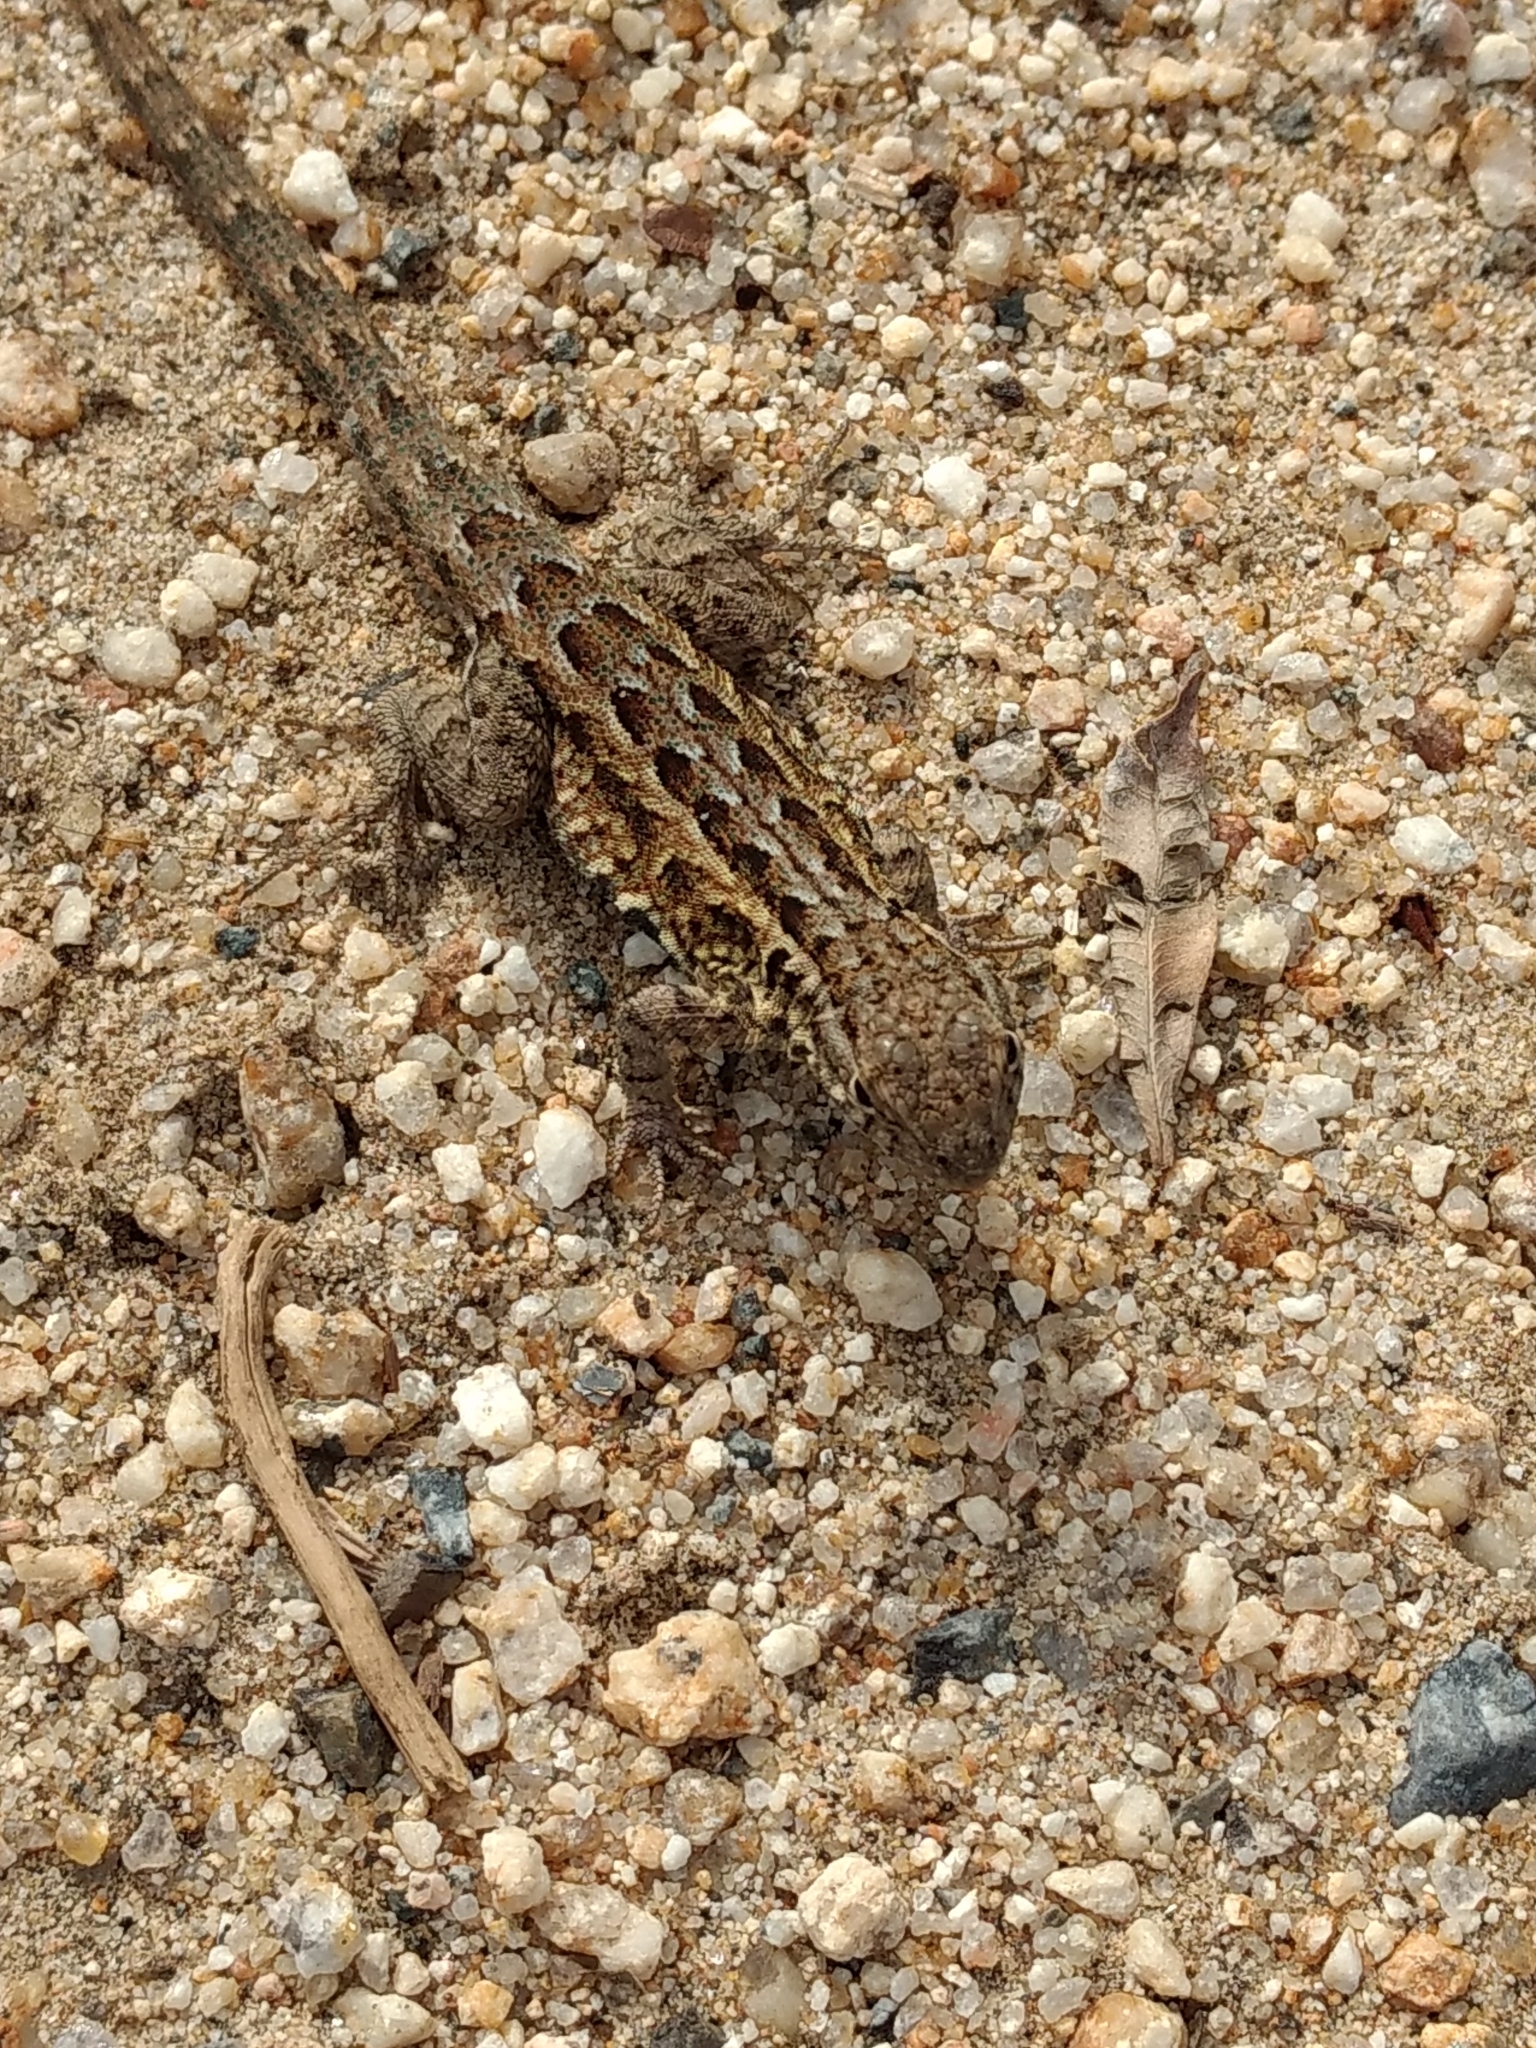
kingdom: Animalia
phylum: Chordata
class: Squamata
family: Phrynosomatidae
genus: Uta
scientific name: Uta stansburiana
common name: Side-blotched lizard
